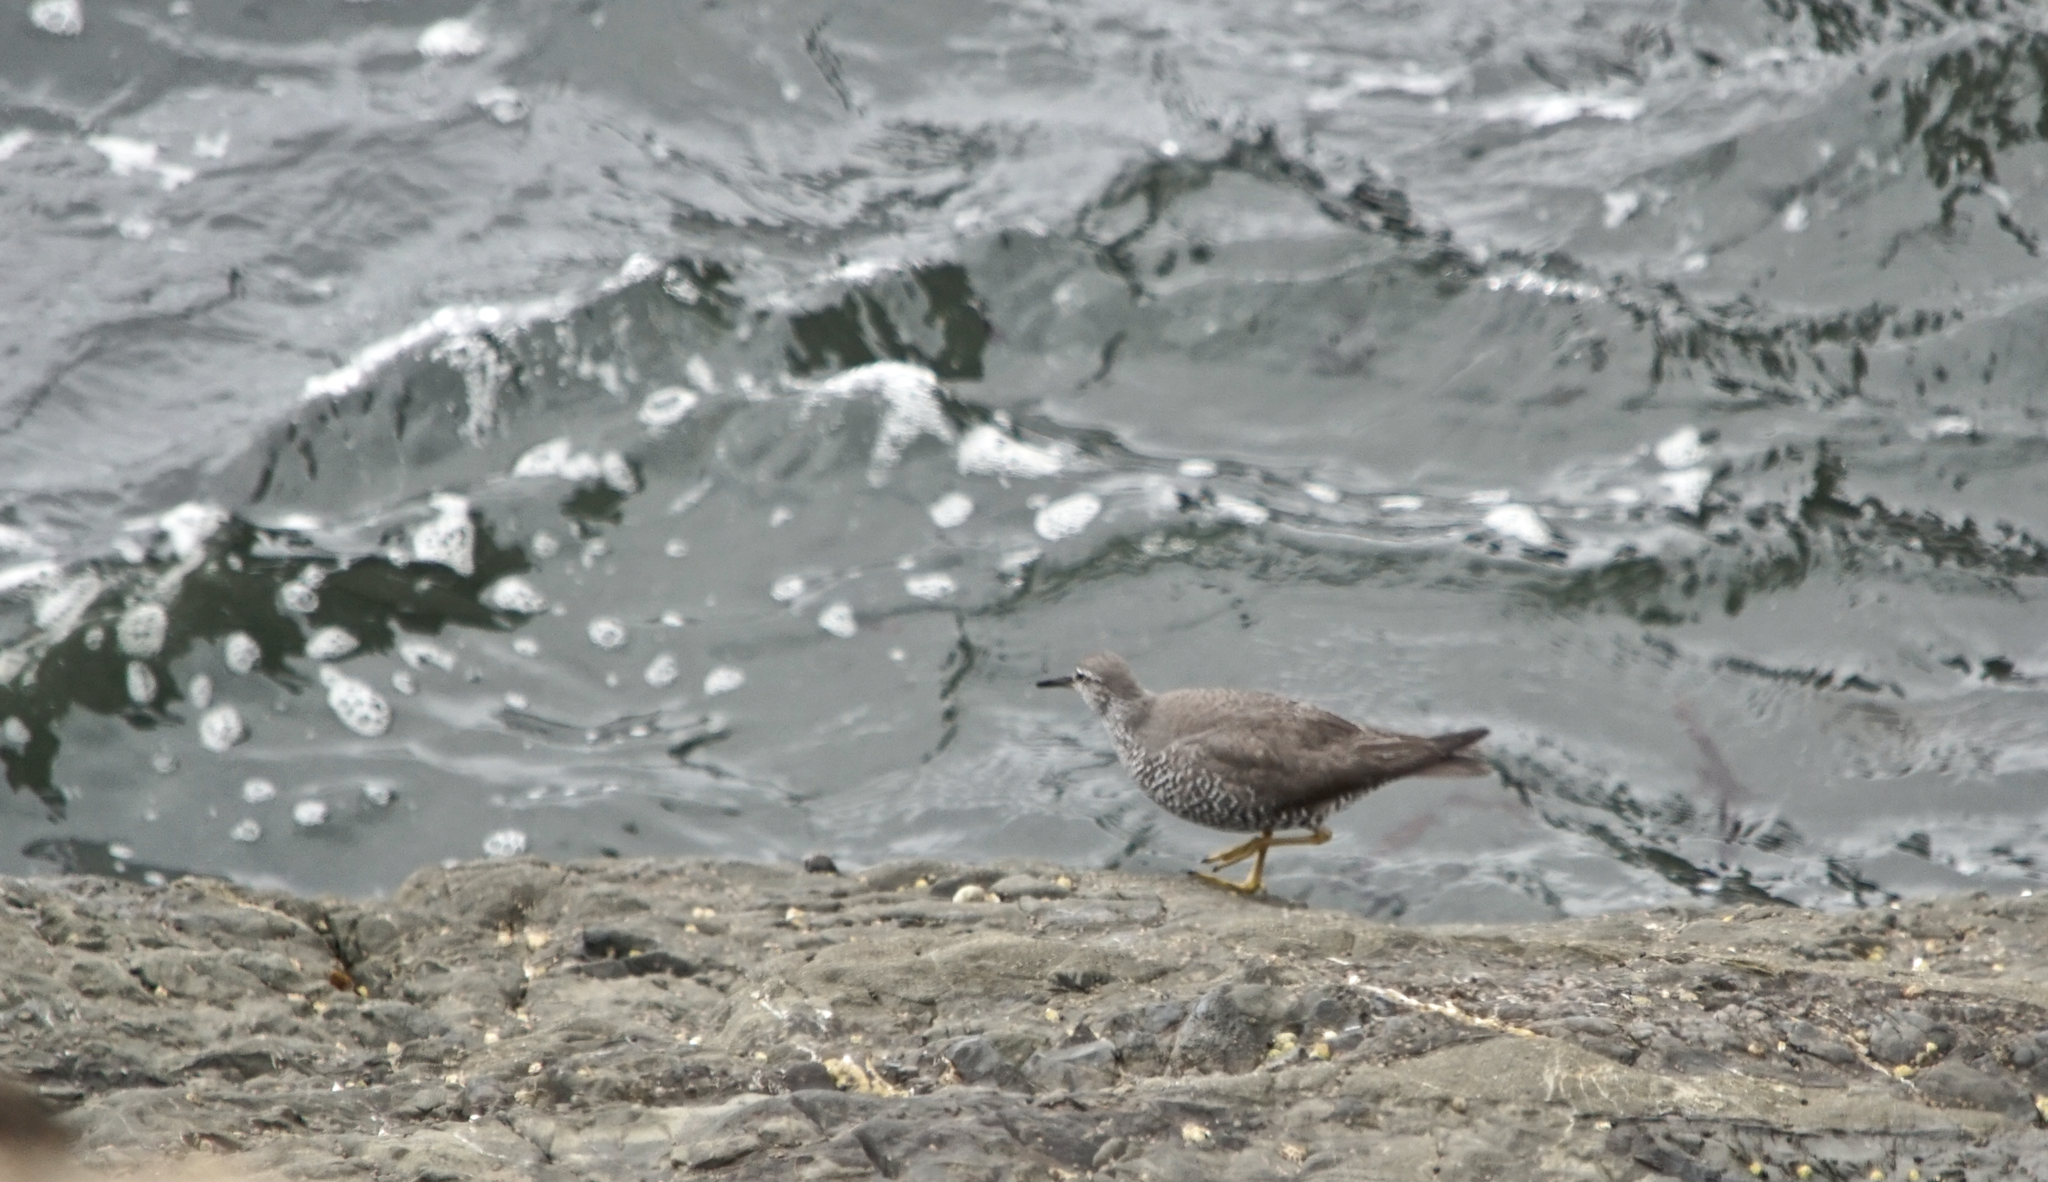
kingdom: Animalia
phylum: Chordata
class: Aves
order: Charadriiformes
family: Scolopacidae
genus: Tringa
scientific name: Tringa incana
